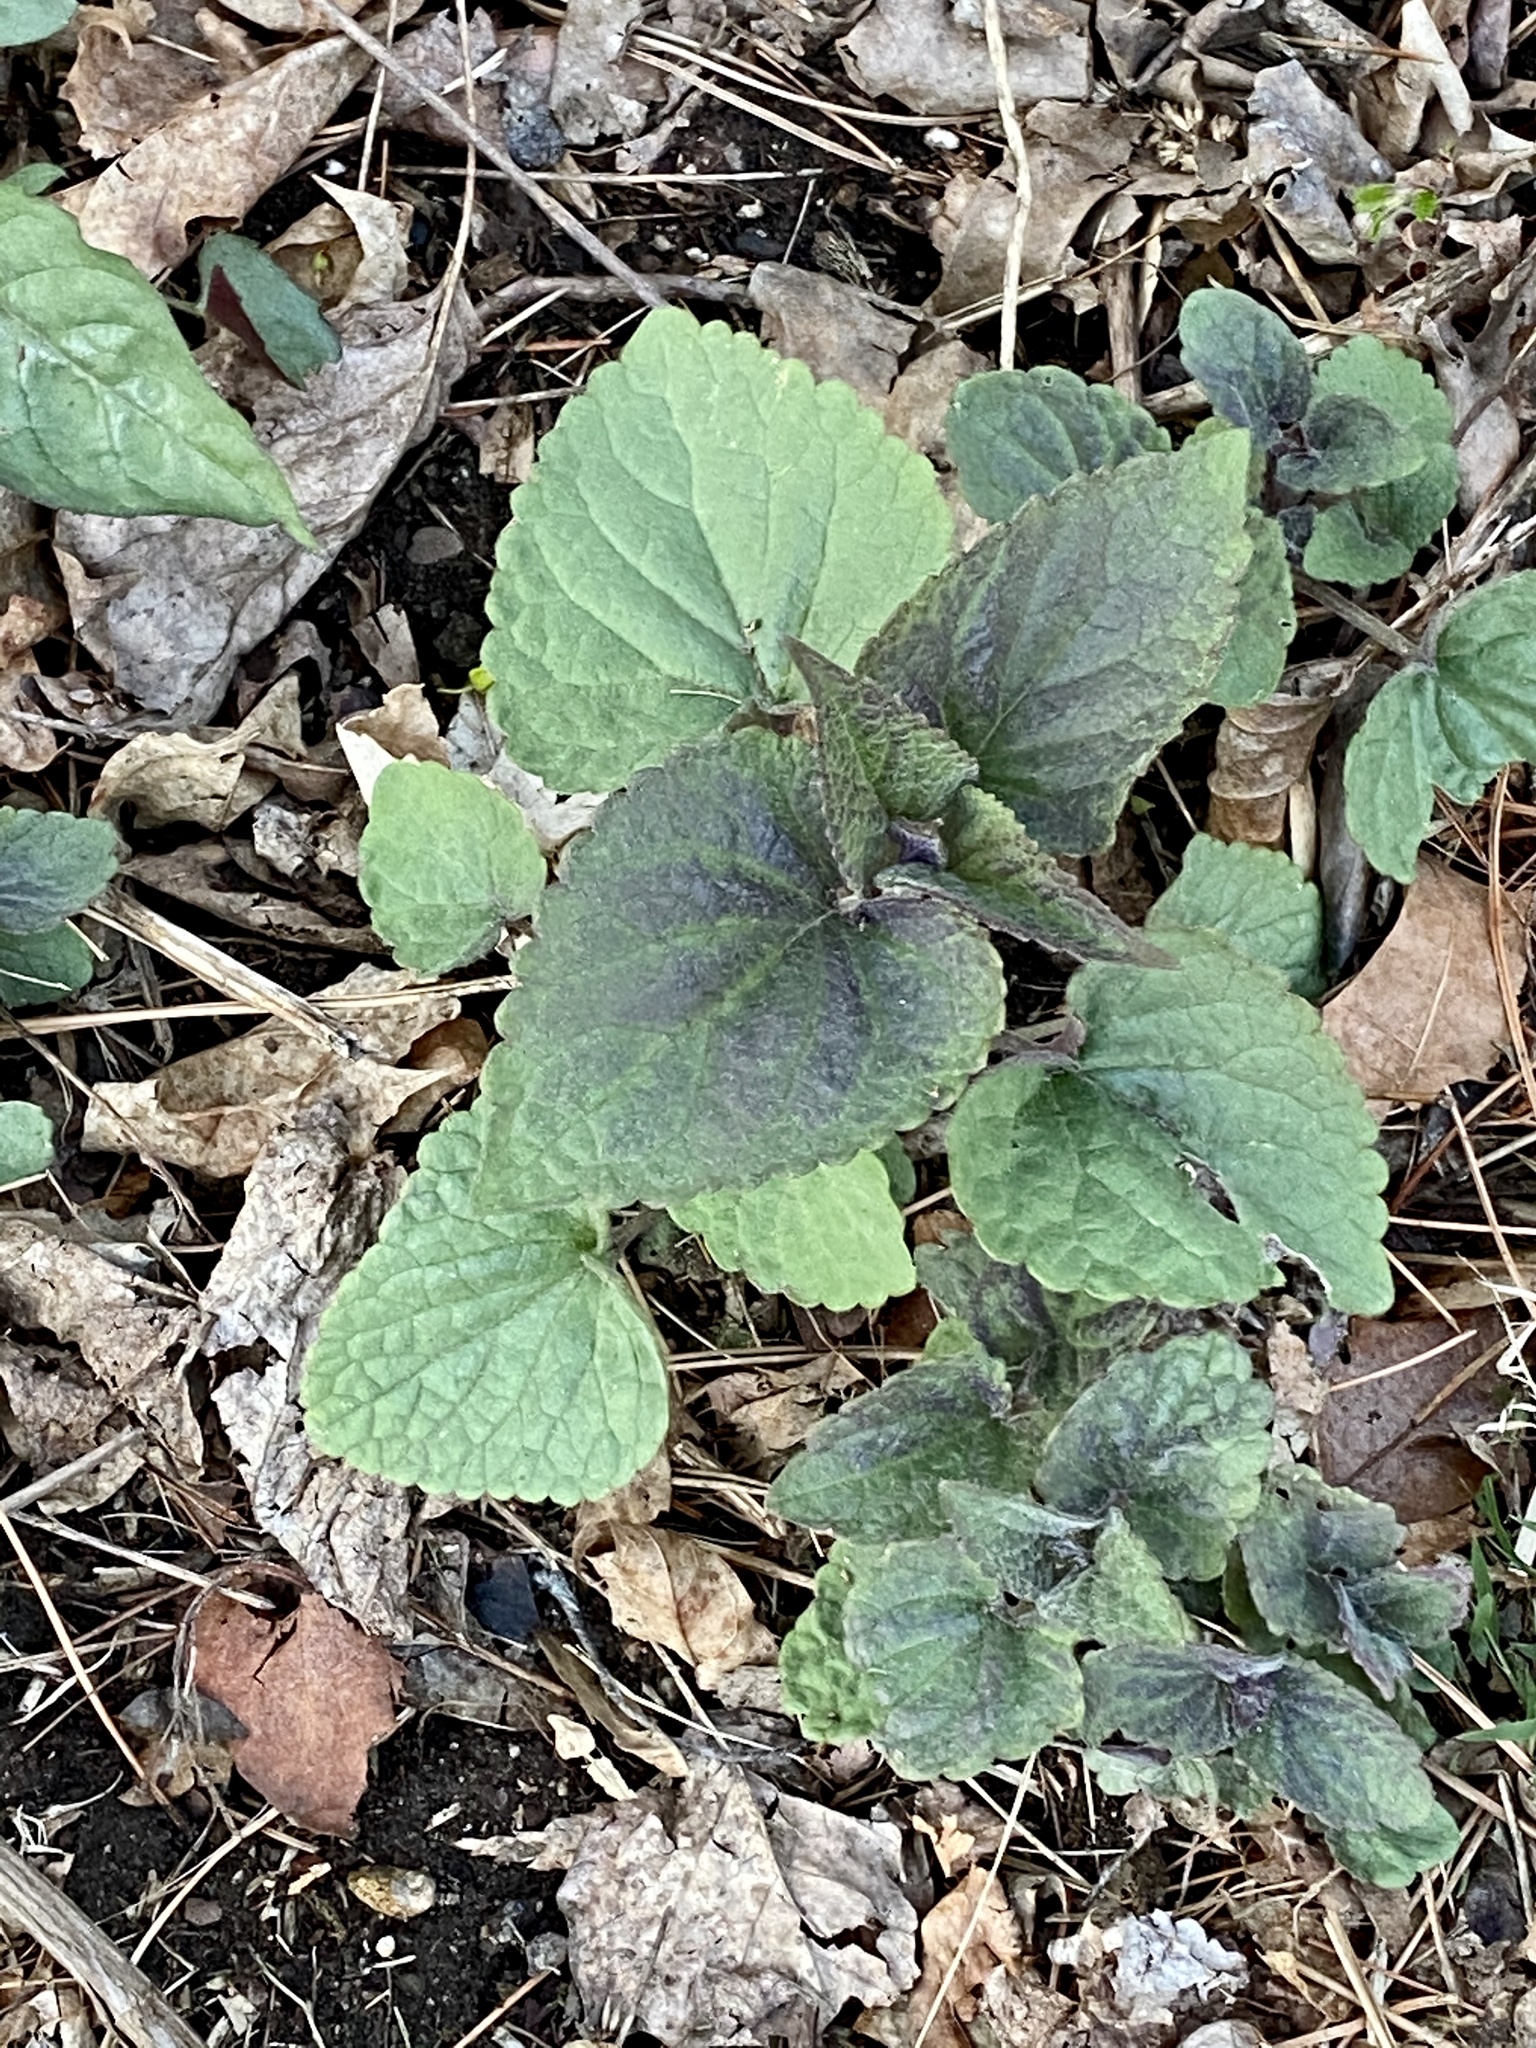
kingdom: Plantae
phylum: Tracheophyta
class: Magnoliopsida
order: Lamiales
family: Lamiaceae
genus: Agastache
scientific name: Agastache foeniculum
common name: Anise hyssop
